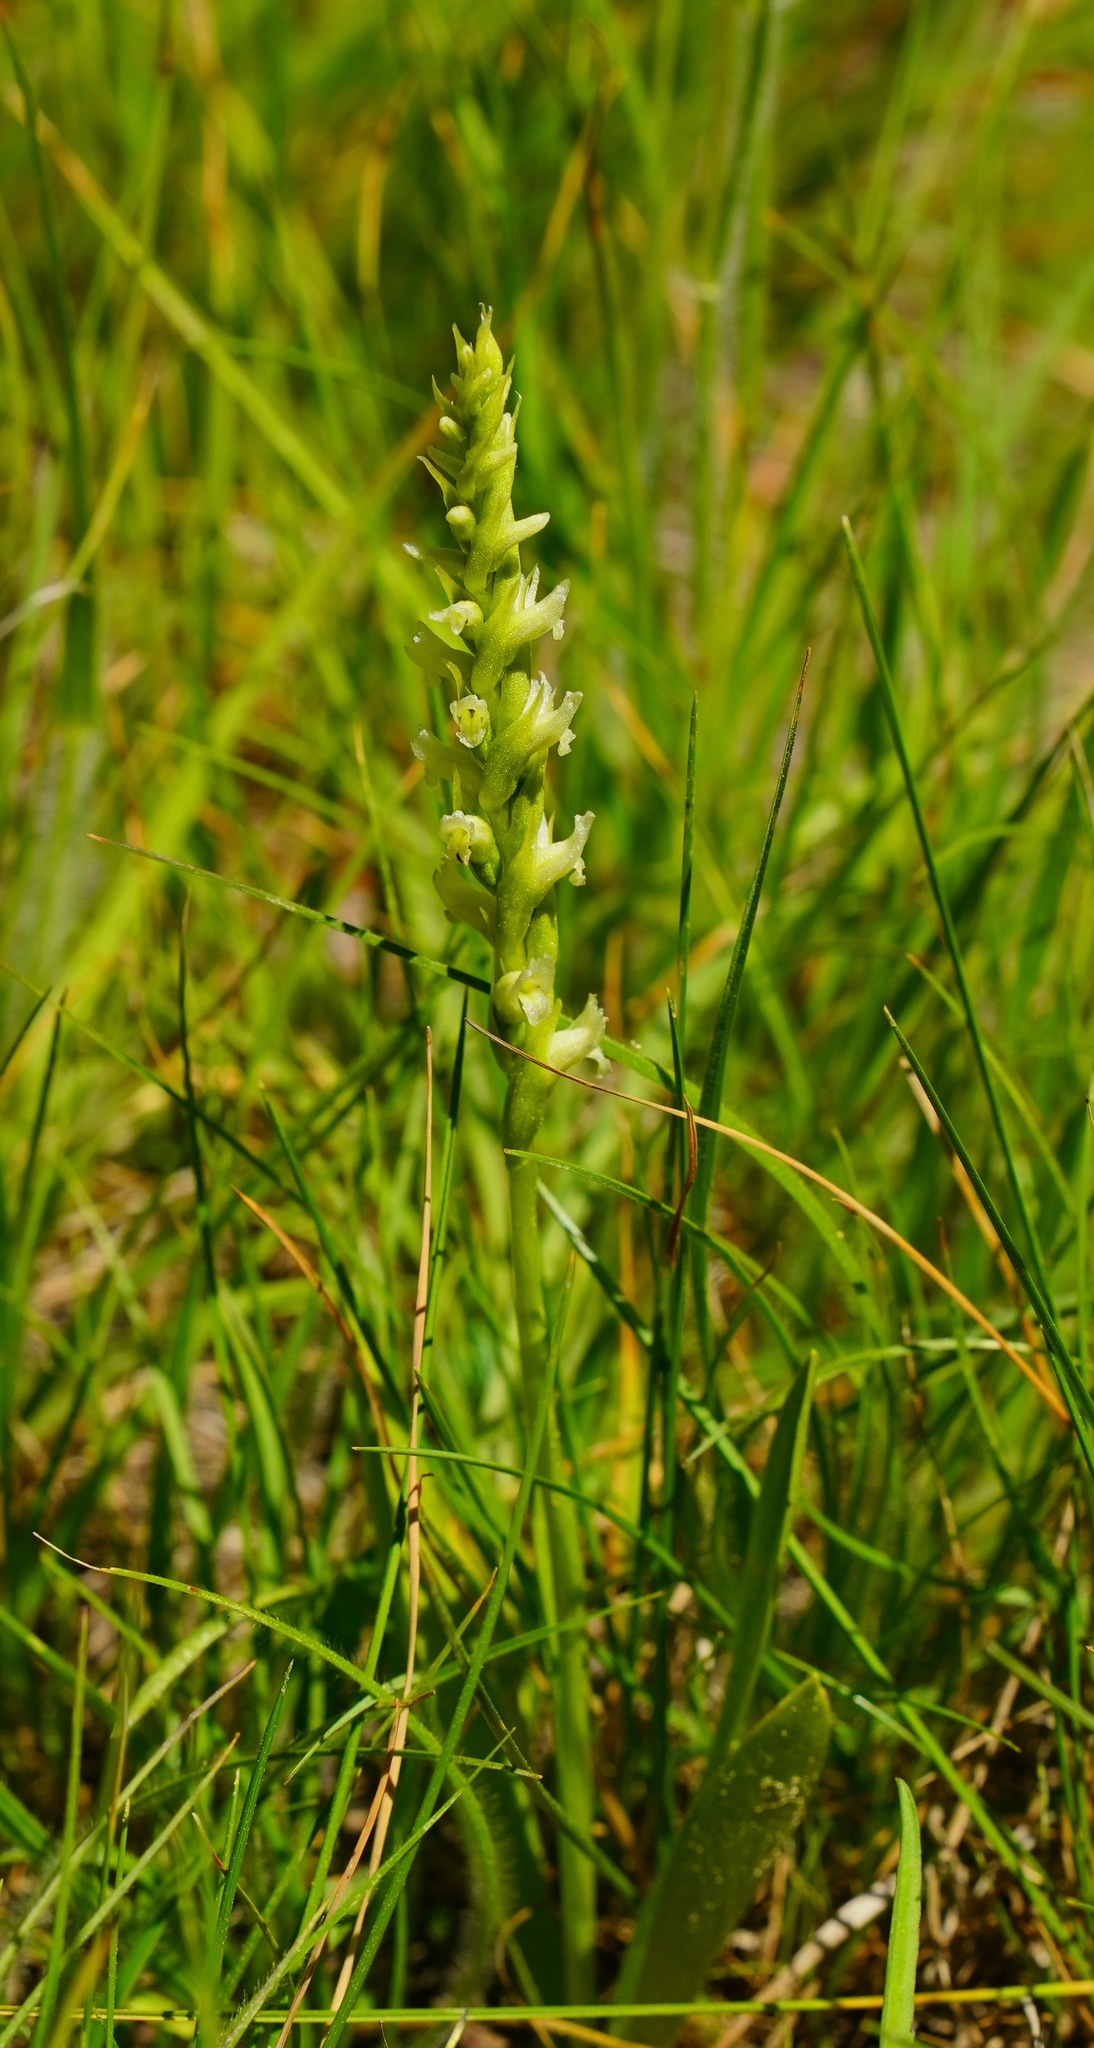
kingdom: Plantae
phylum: Tracheophyta
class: Liliopsida
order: Asparagales
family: Orchidaceae
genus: Spiranthes
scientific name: Spiranthes romanzoffiana
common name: Irish lady's-tresses
